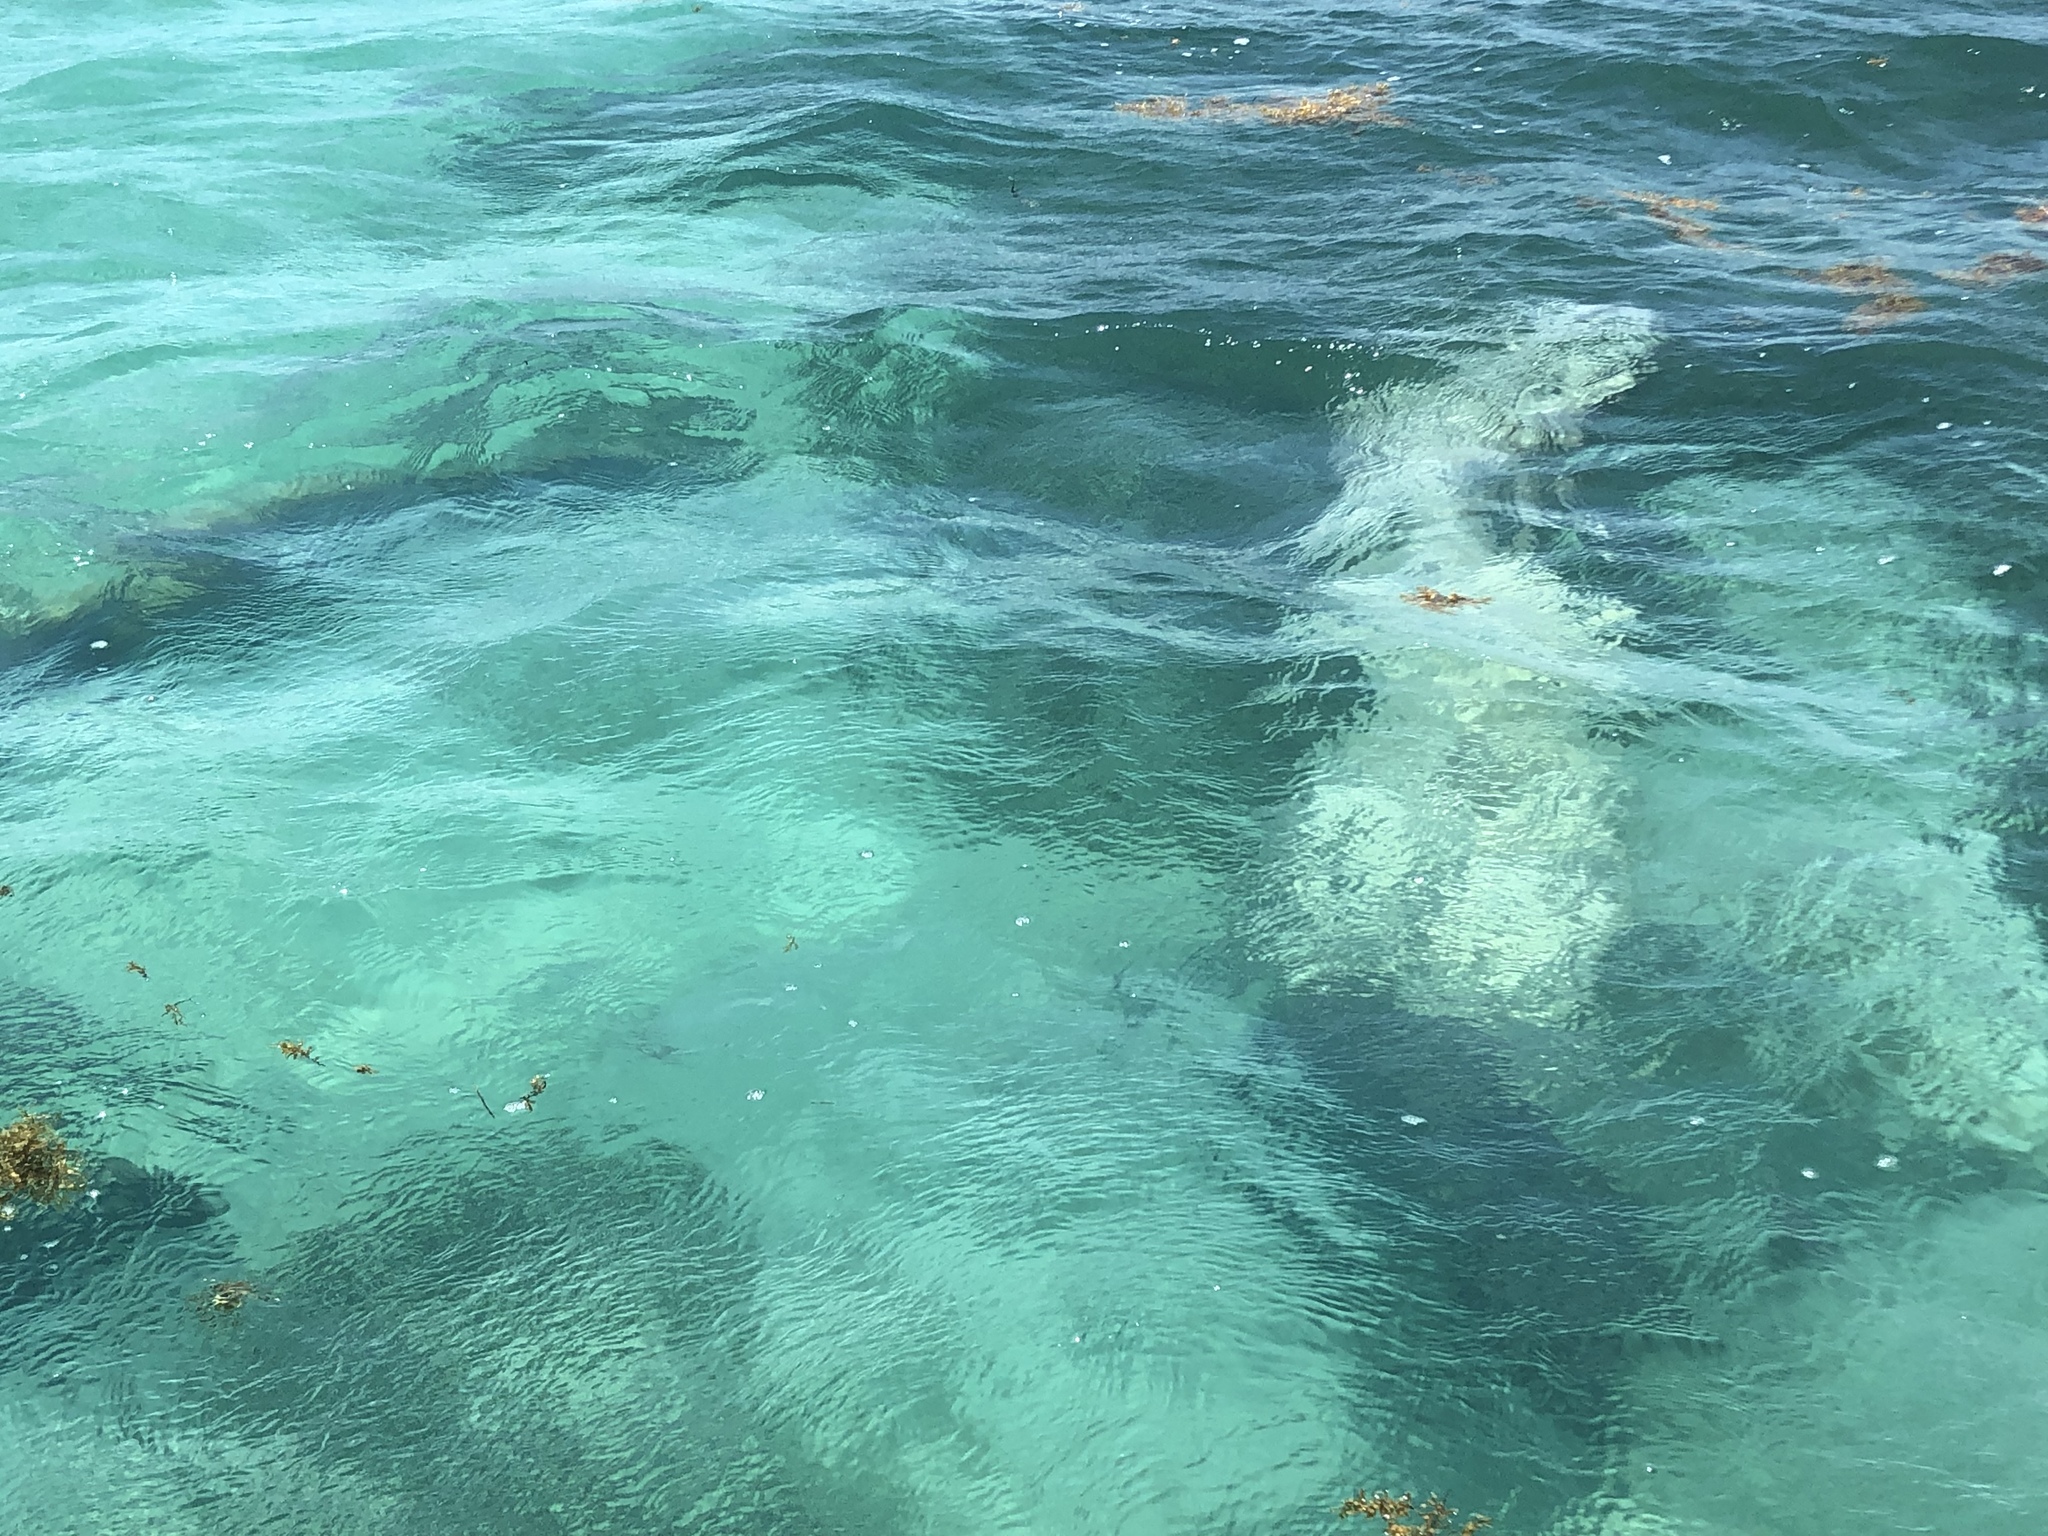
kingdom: Animalia
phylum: Chordata
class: Mammalia
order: Sirenia
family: Trichechidae
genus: Trichechus
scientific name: Trichechus manatus
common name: West indian manatee
